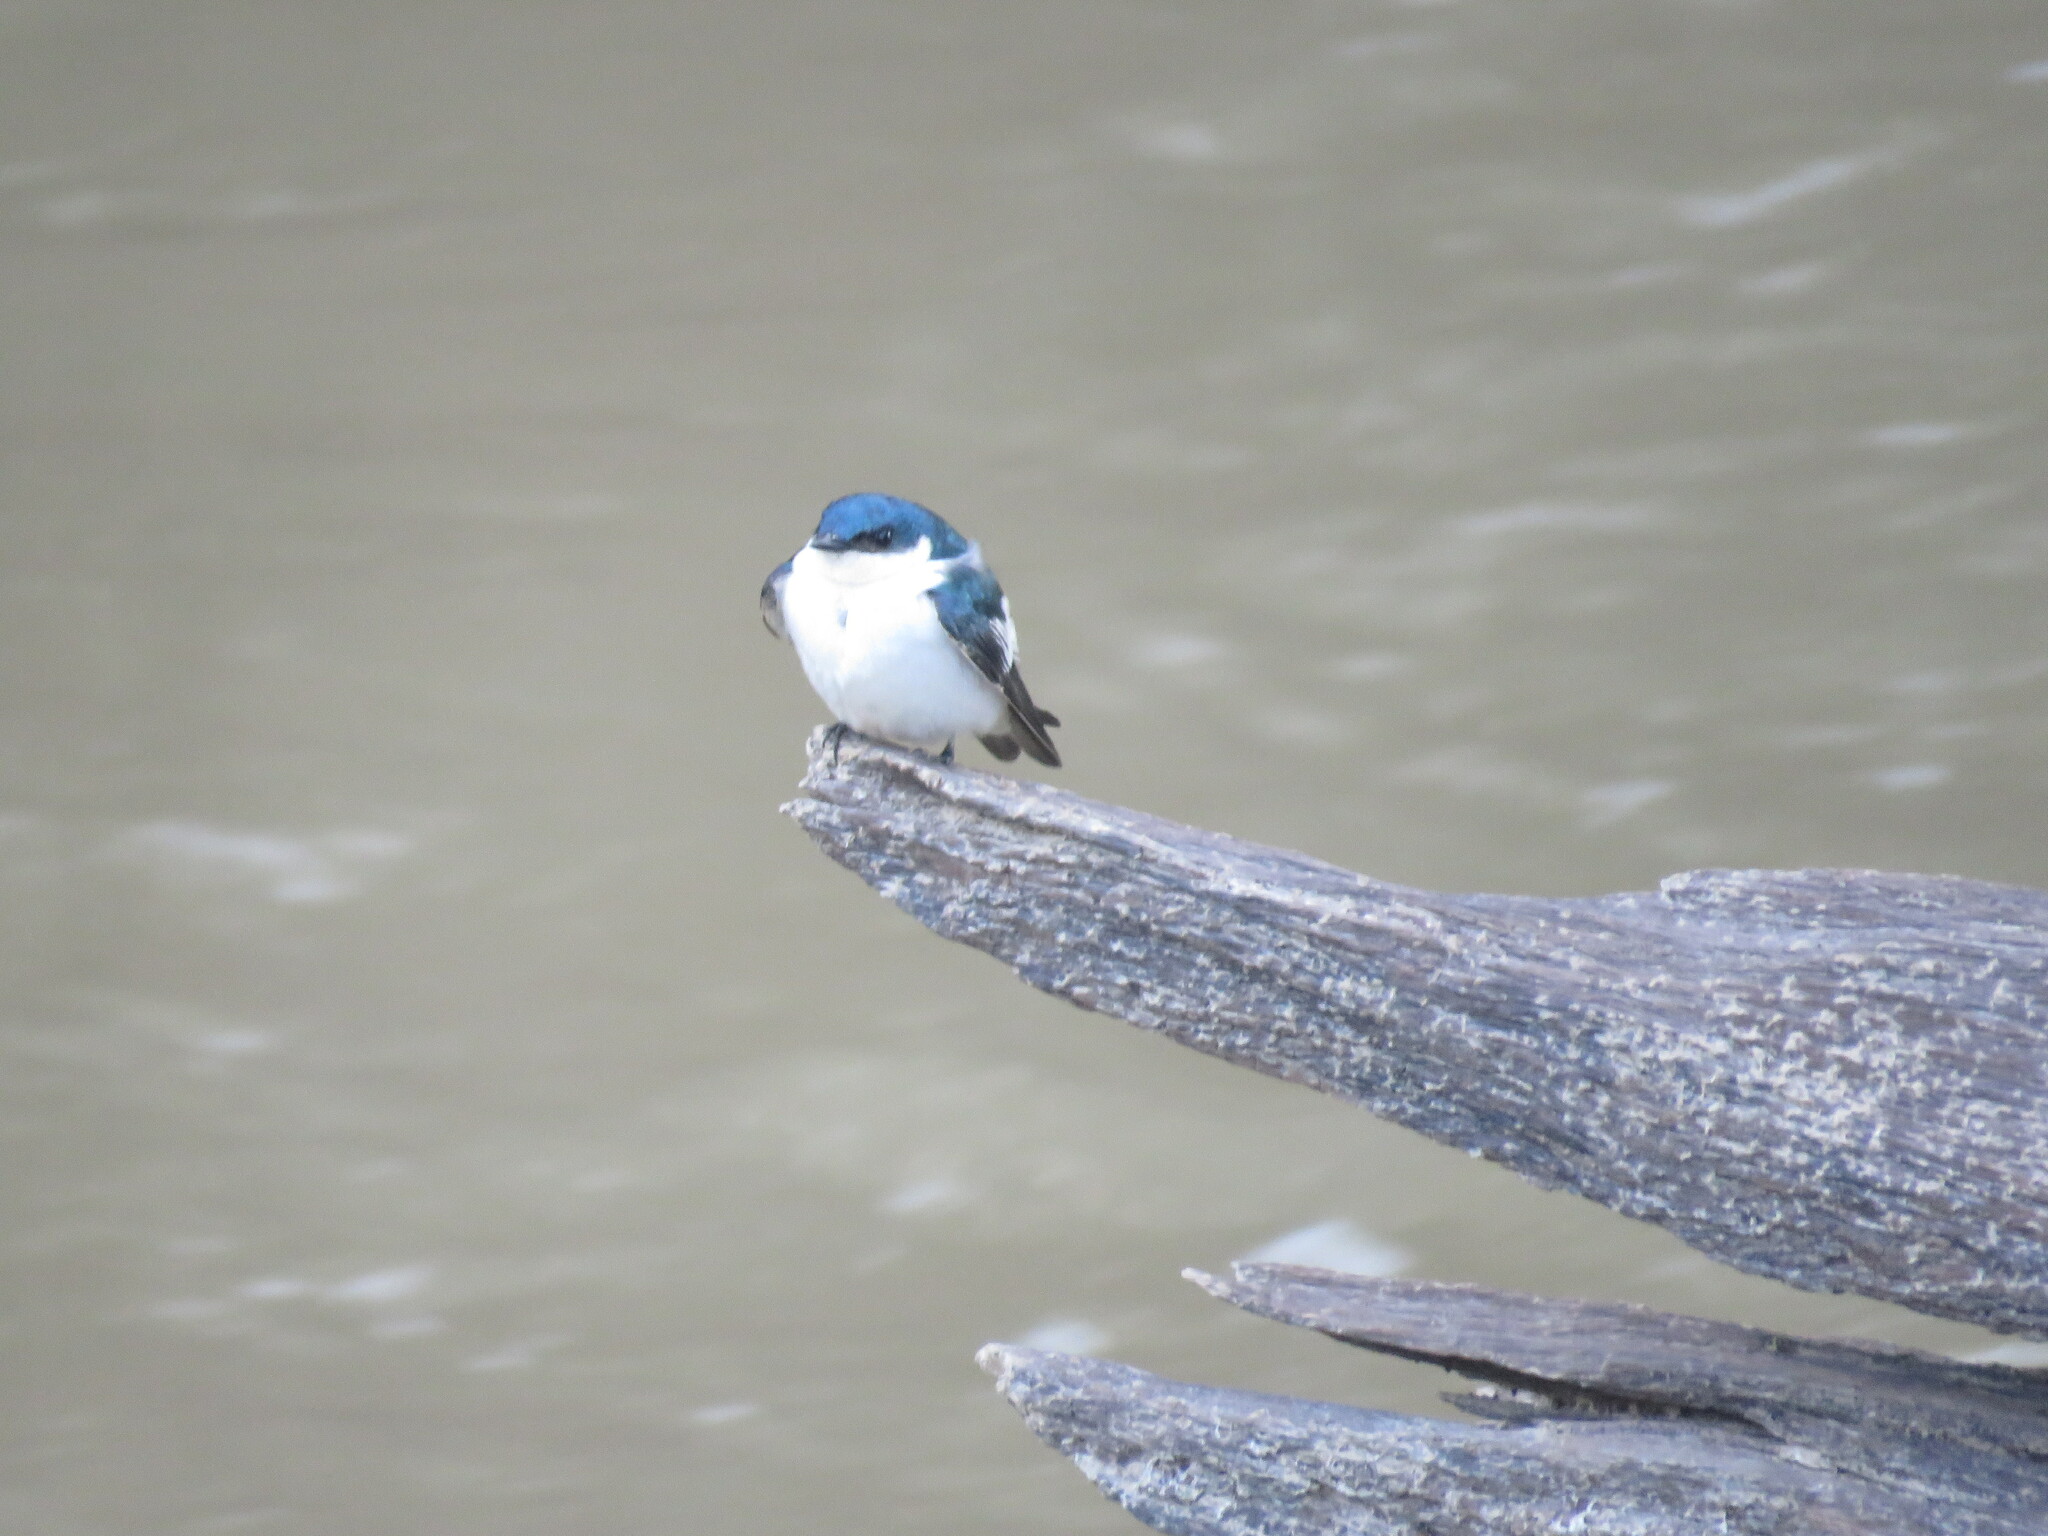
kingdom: Animalia
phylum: Chordata
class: Aves
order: Passeriformes
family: Hirundinidae
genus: Tachycineta
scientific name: Tachycineta albiventer
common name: White-winged swallow
